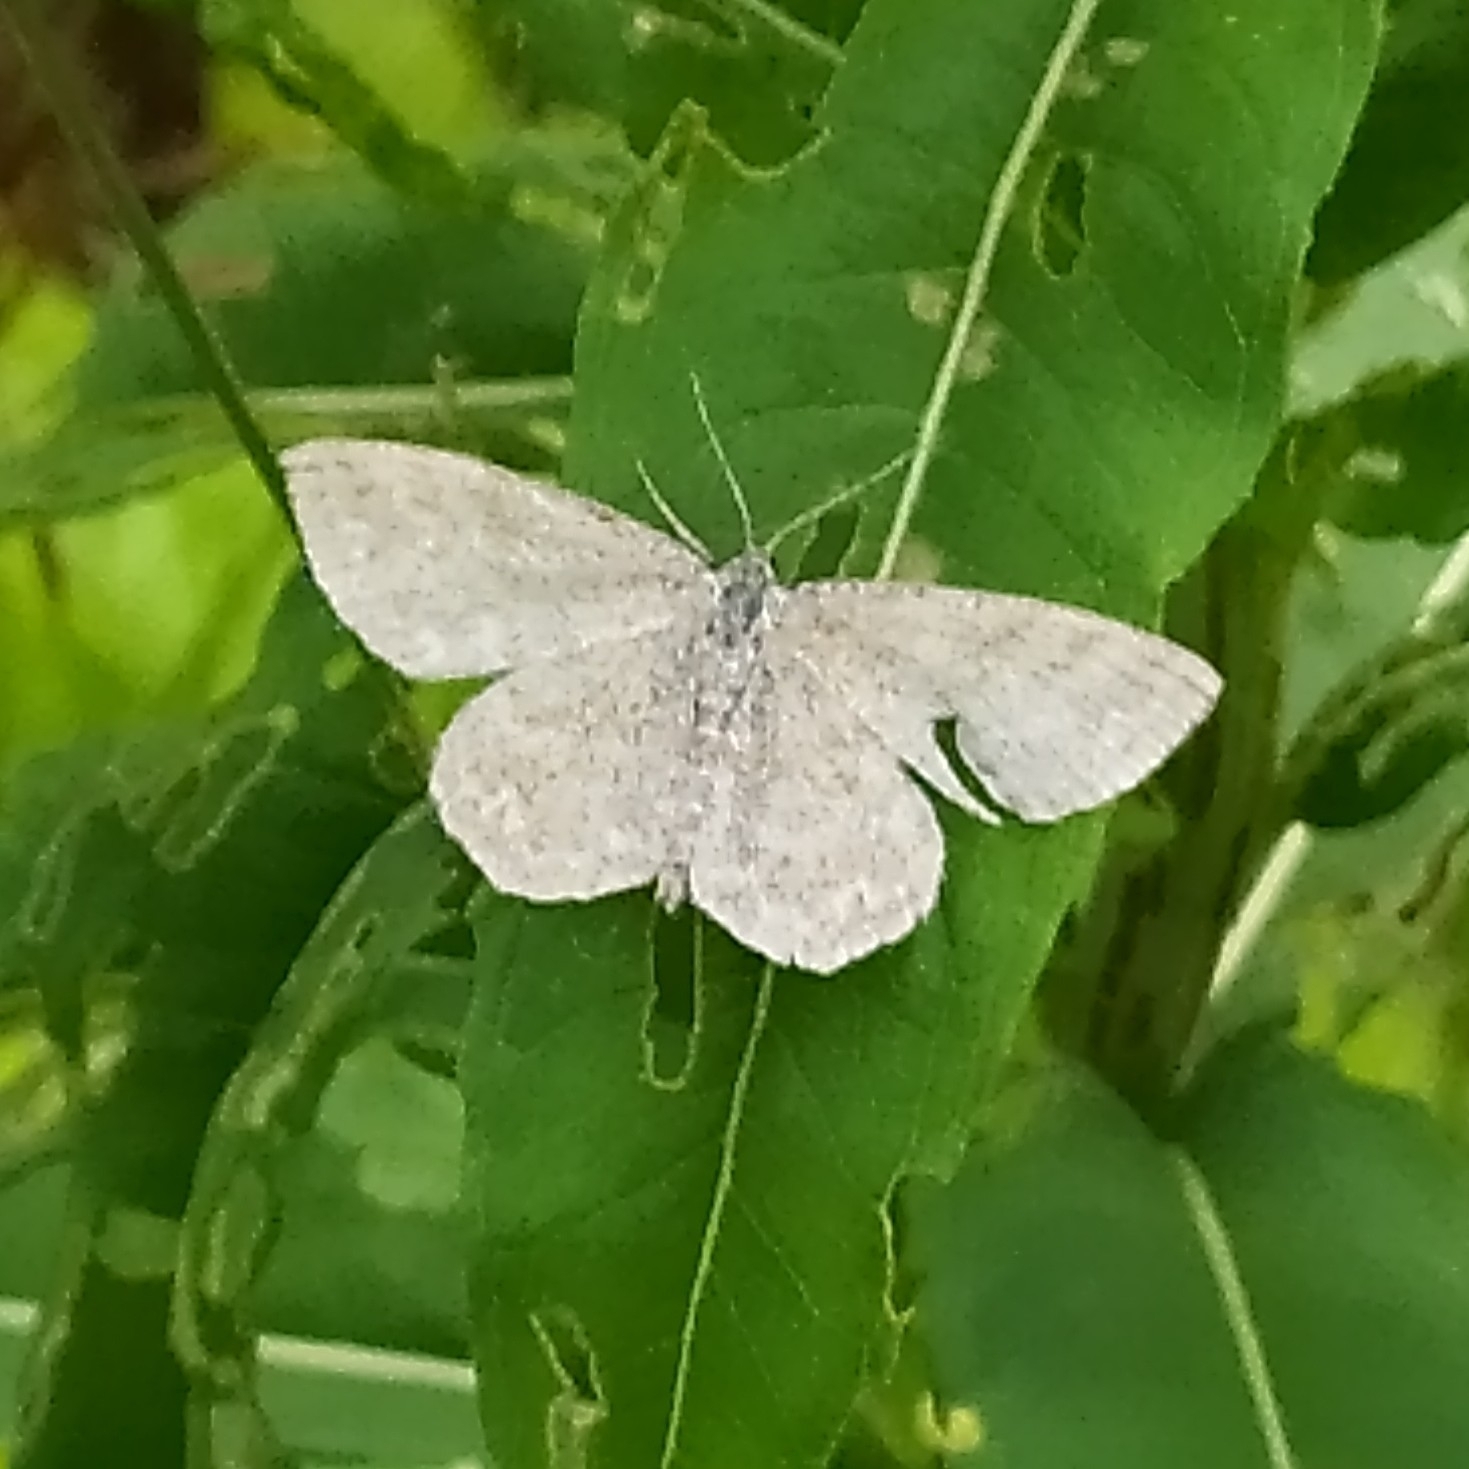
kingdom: Animalia
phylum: Arthropoda
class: Insecta
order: Lepidoptera
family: Geometridae
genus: Scopula
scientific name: Scopula immorata
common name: Lewes wave
